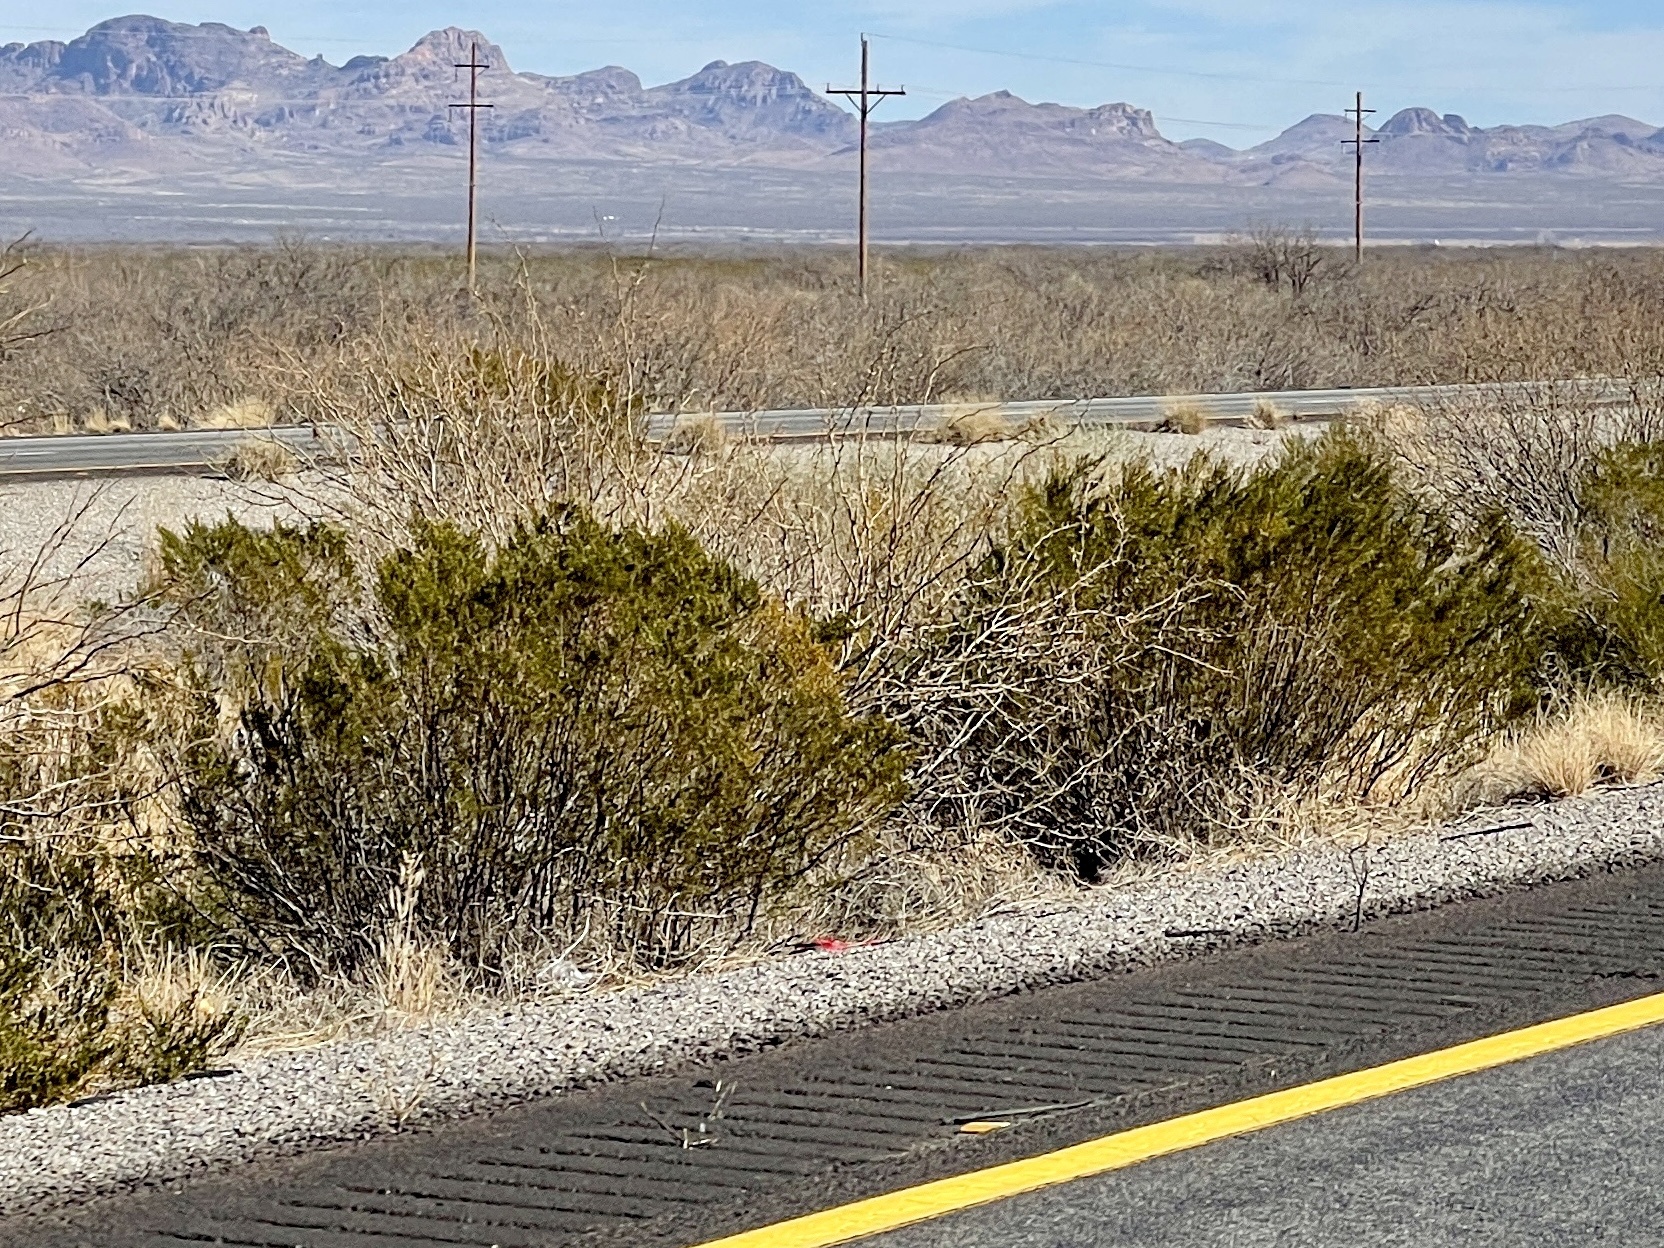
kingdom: Plantae
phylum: Tracheophyta
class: Magnoliopsida
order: Zygophyllales
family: Zygophyllaceae
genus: Larrea
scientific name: Larrea tridentata
